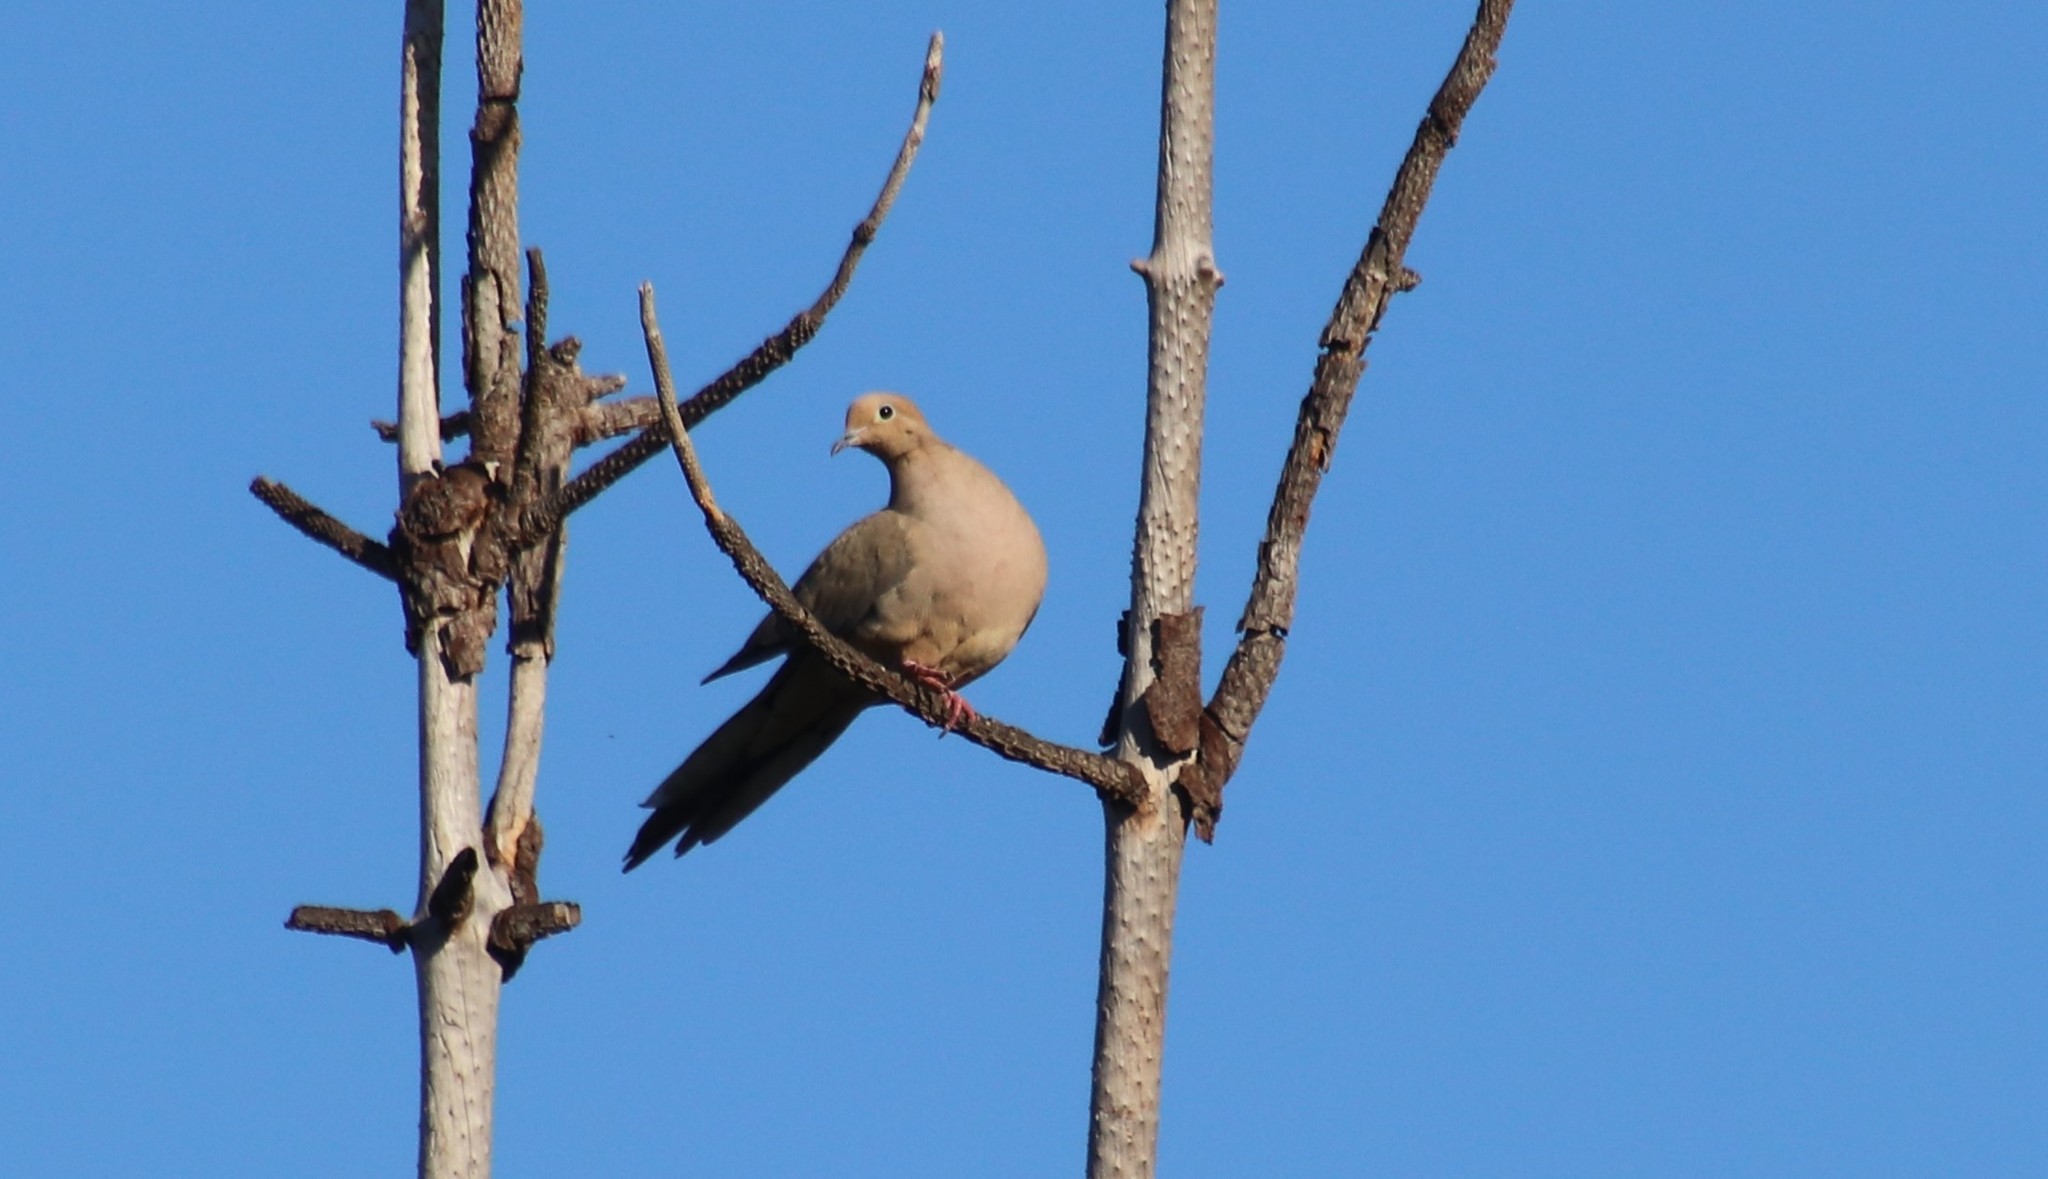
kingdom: Animalia
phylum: Chordata
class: Aves
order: Columbiformes
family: Columbidae
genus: Zenaida
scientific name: Zenaida macroura
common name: Mourning dove
